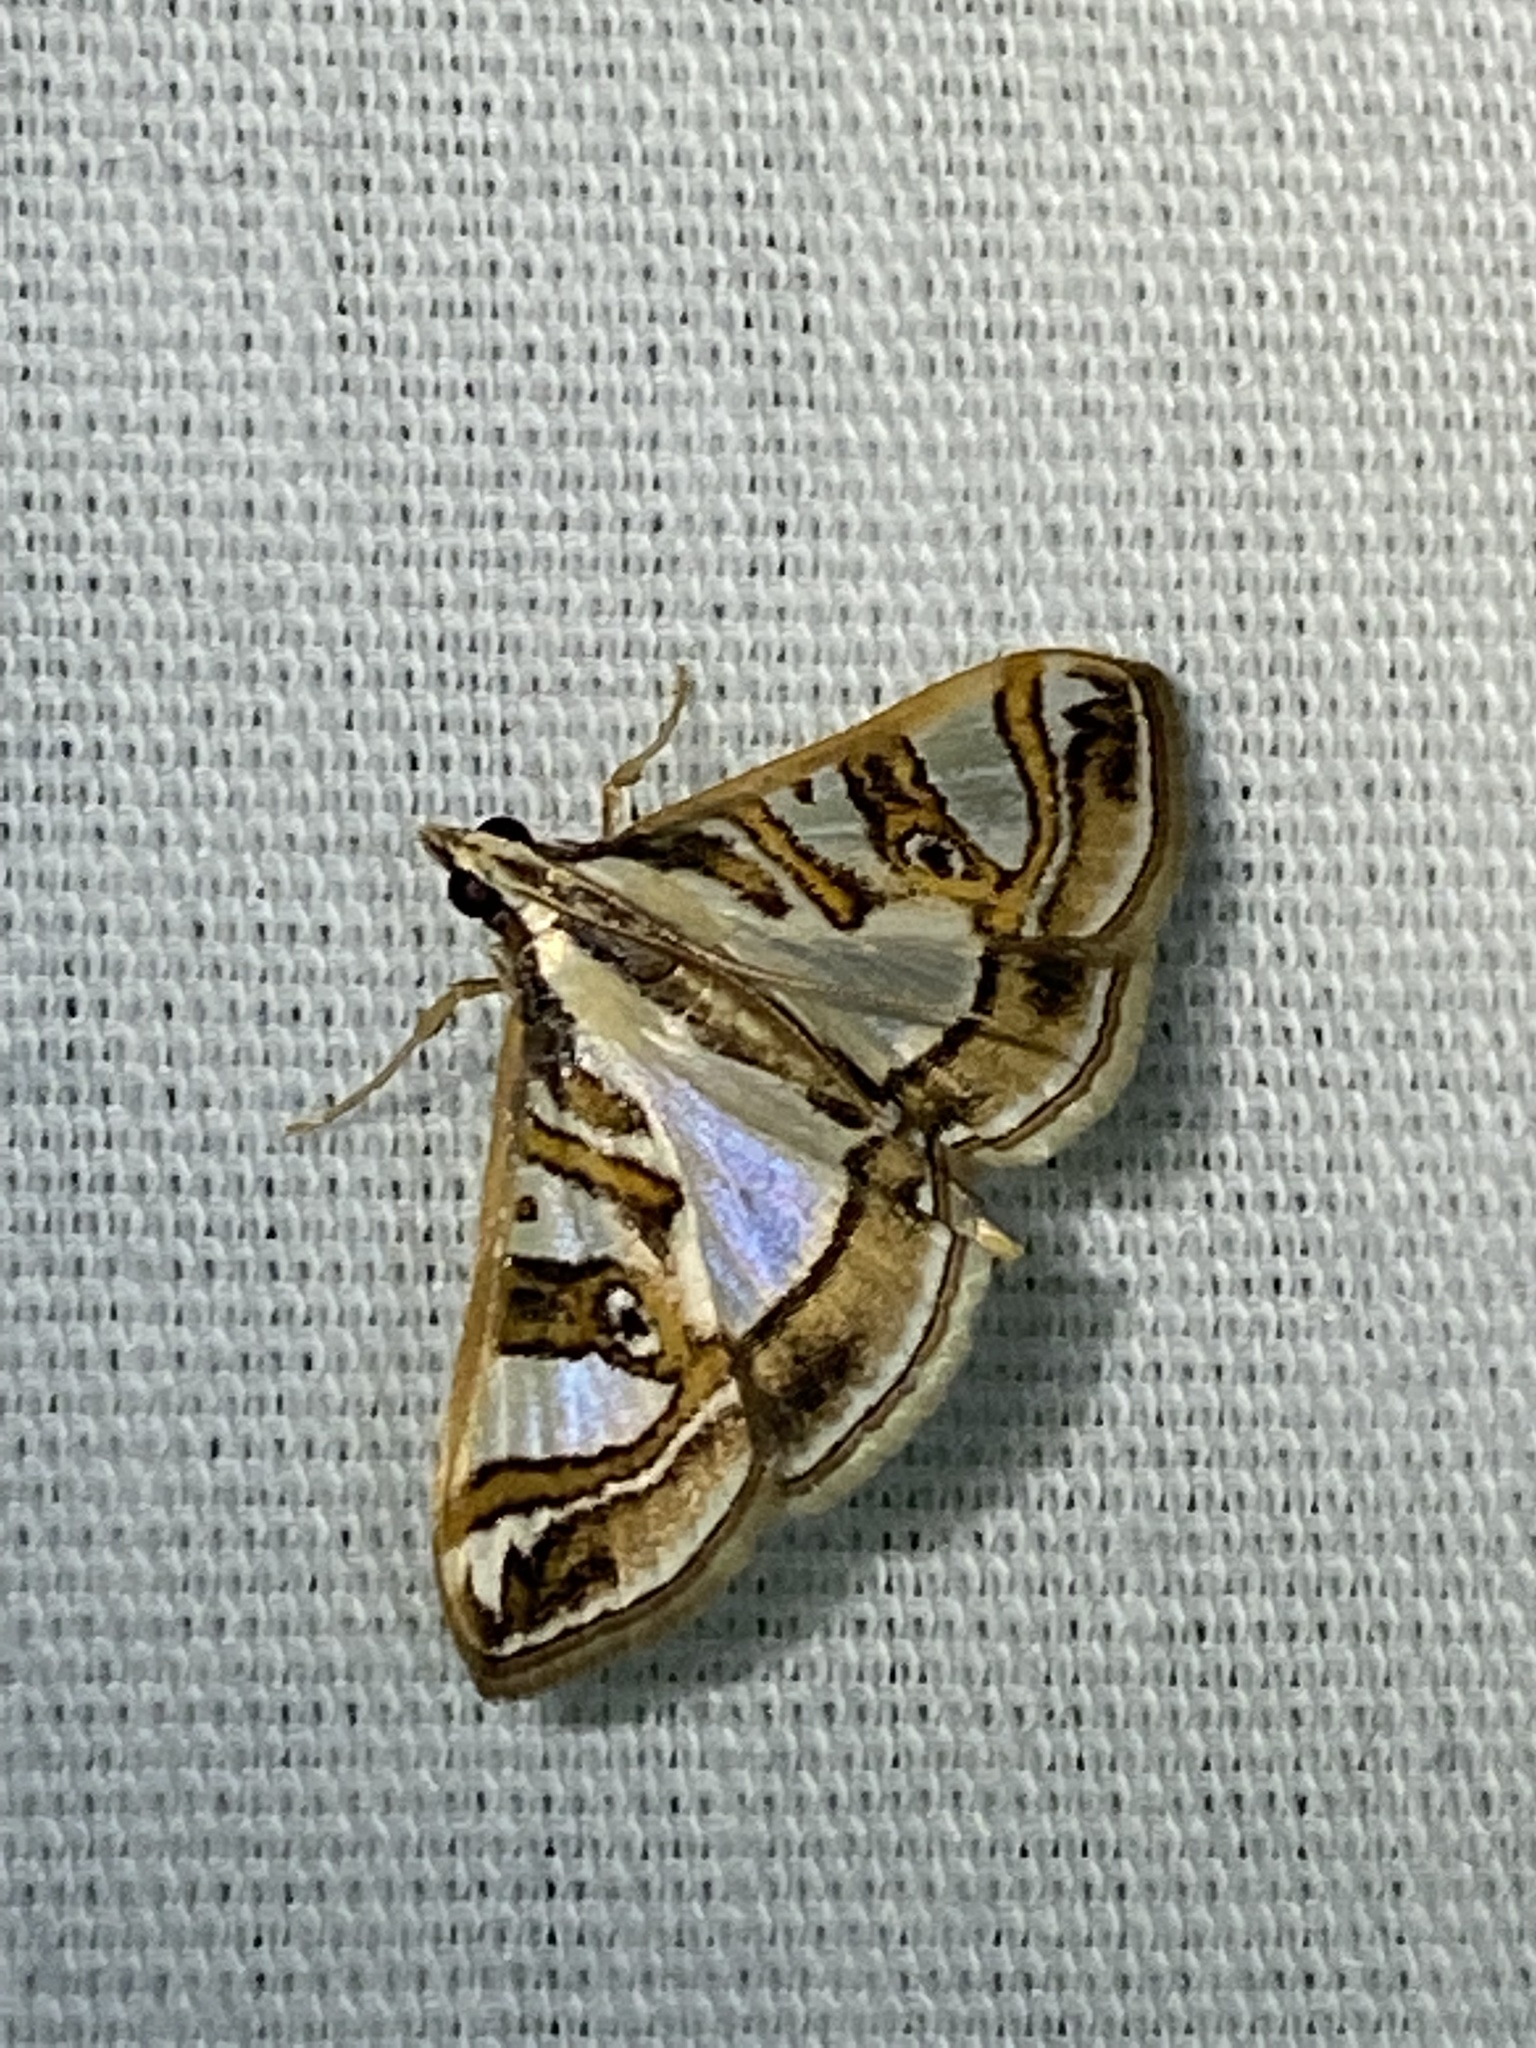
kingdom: Animalia
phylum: Arthropoda
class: Insecta
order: Lepidoptera
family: Crambidae
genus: Glyphodes
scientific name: Glyphodes pyloalis
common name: Lesser mulberry snout moth
